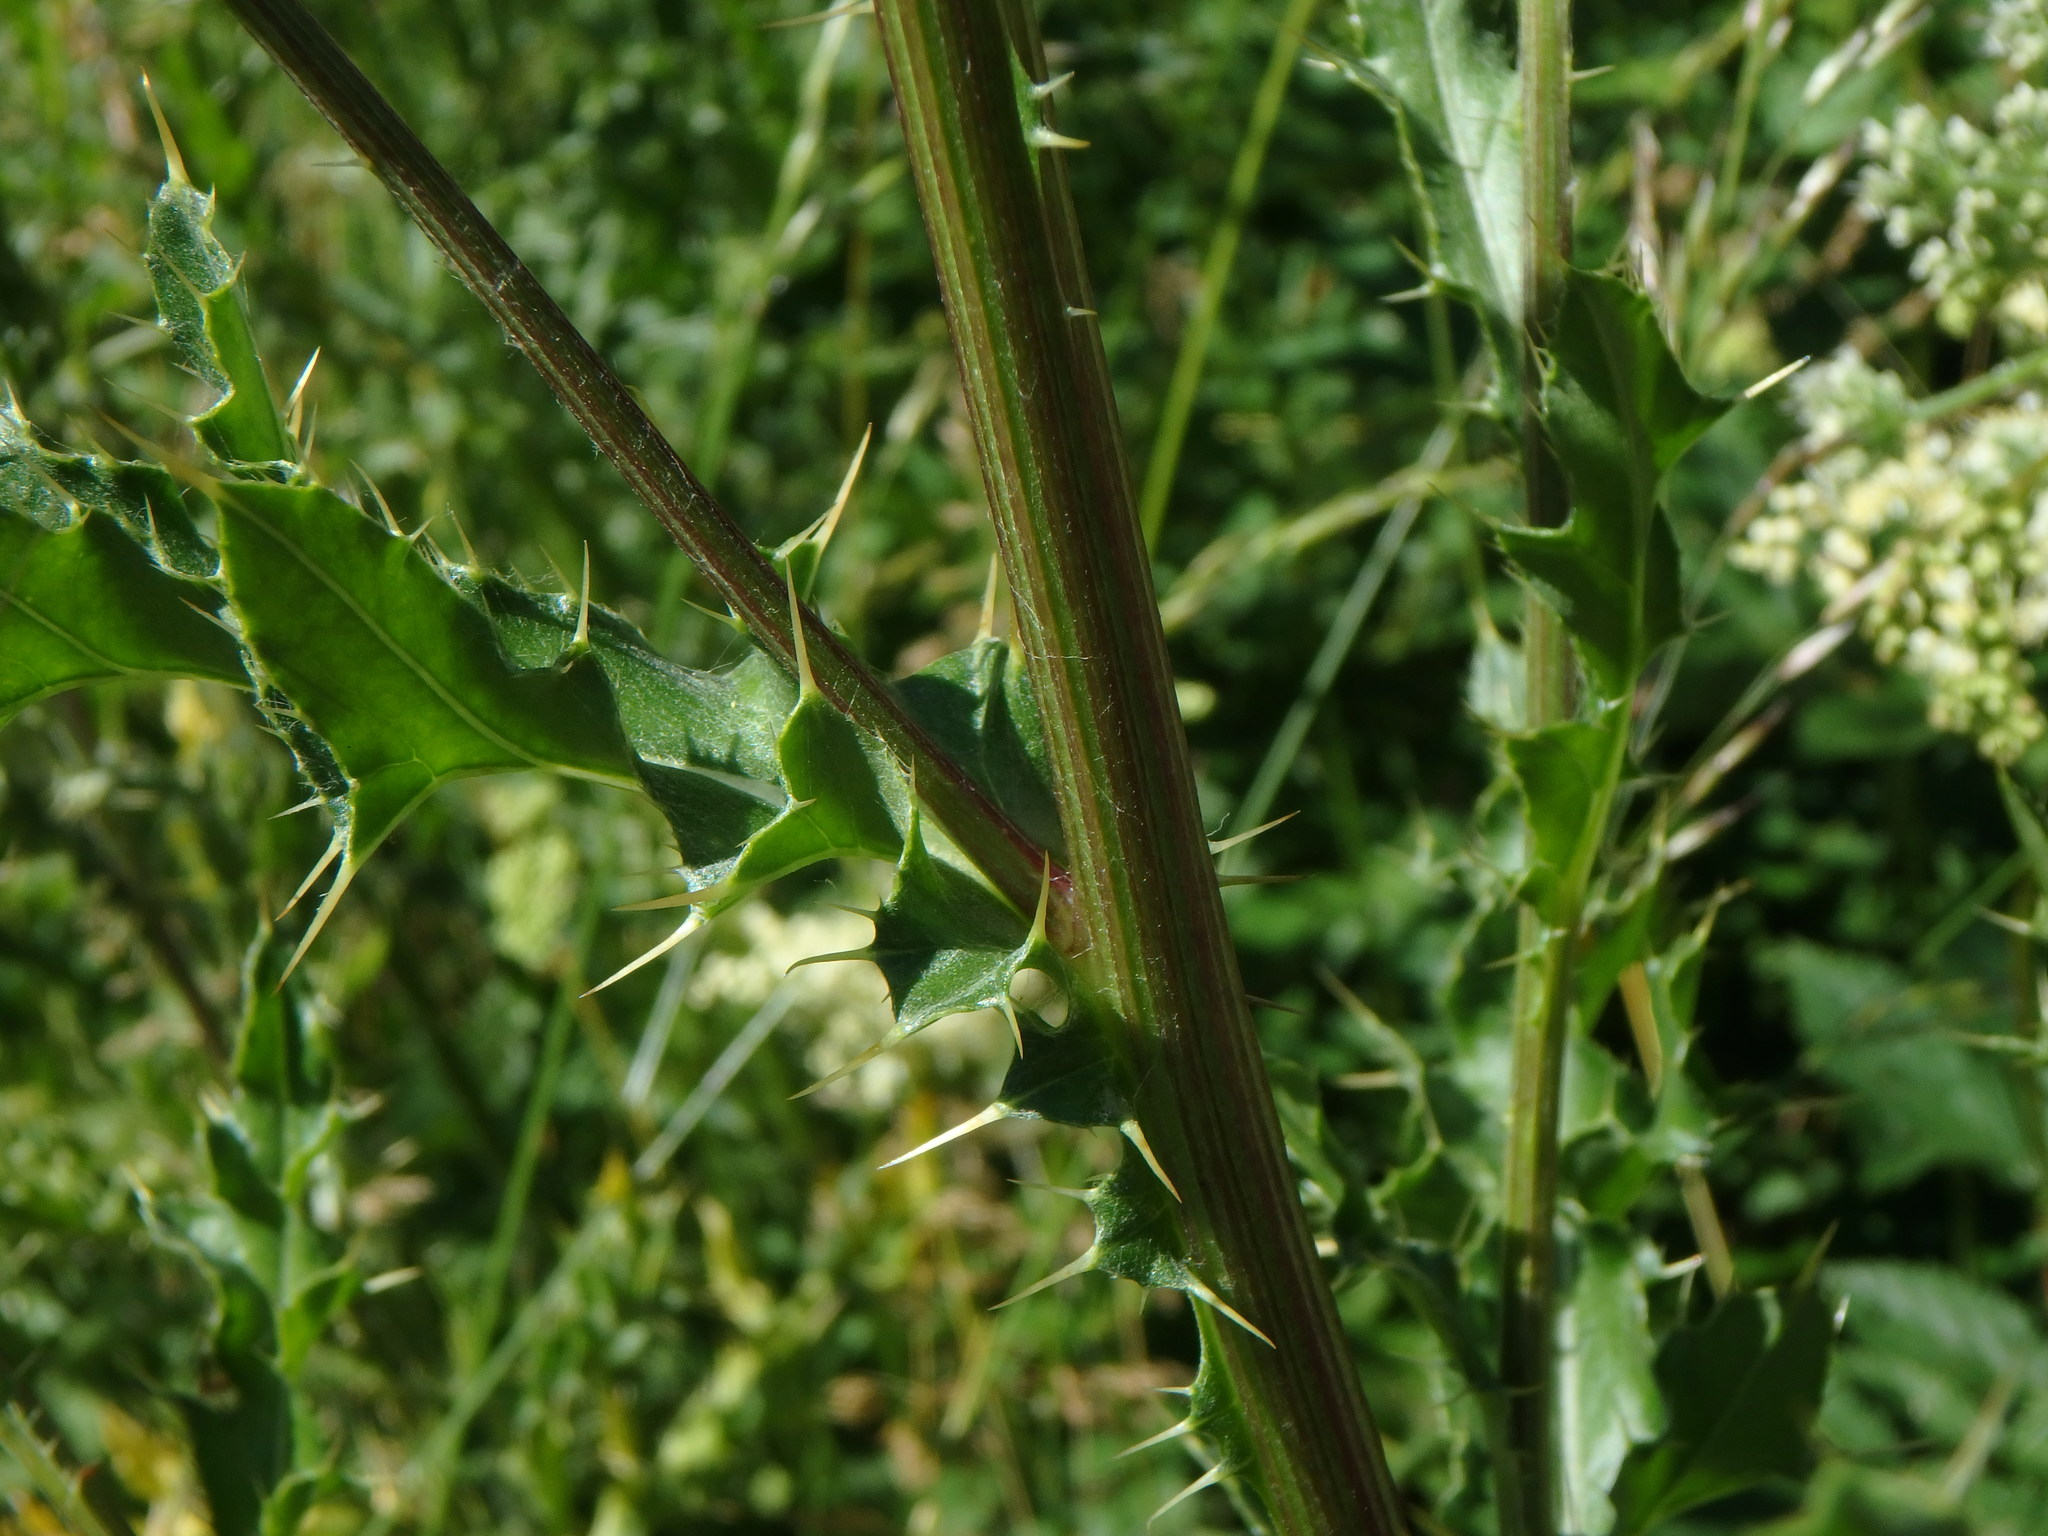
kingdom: Plantae
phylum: Tracheophyta
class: Magnoliopsida
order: Asterales
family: Asteraceae
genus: Cirsium
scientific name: Cirsium arvense
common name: Creeping thistle
